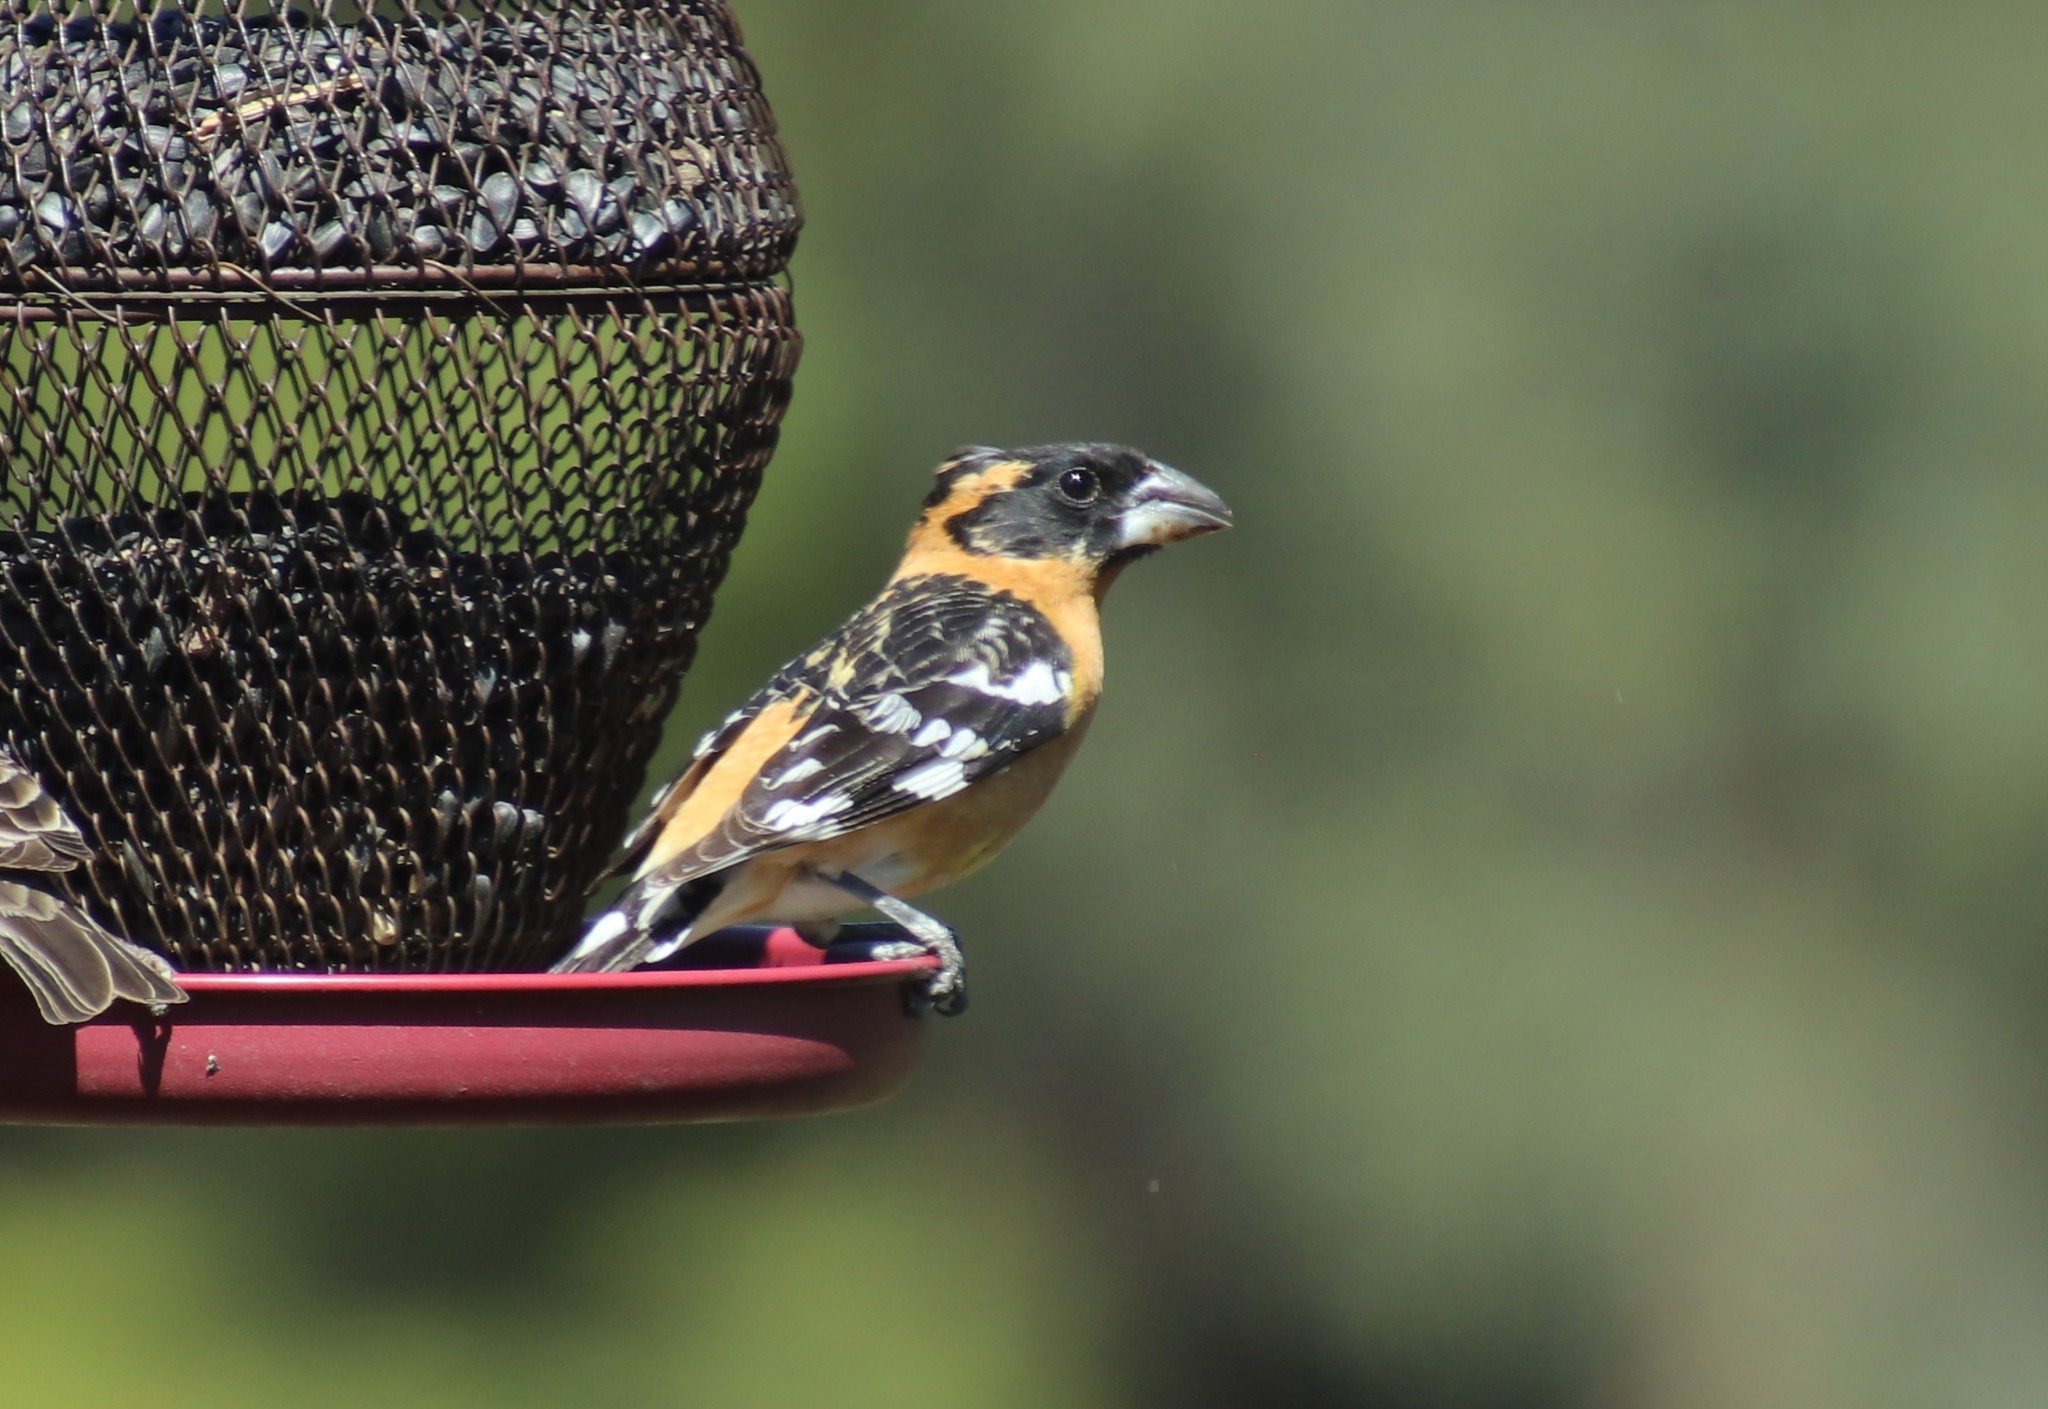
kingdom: Animalia
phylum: Chordata
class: Aves
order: Passeriformes
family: Cardinalidae
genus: Pheucticus
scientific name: Pheucticus melanocephalus
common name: Black-headed grosbeak
